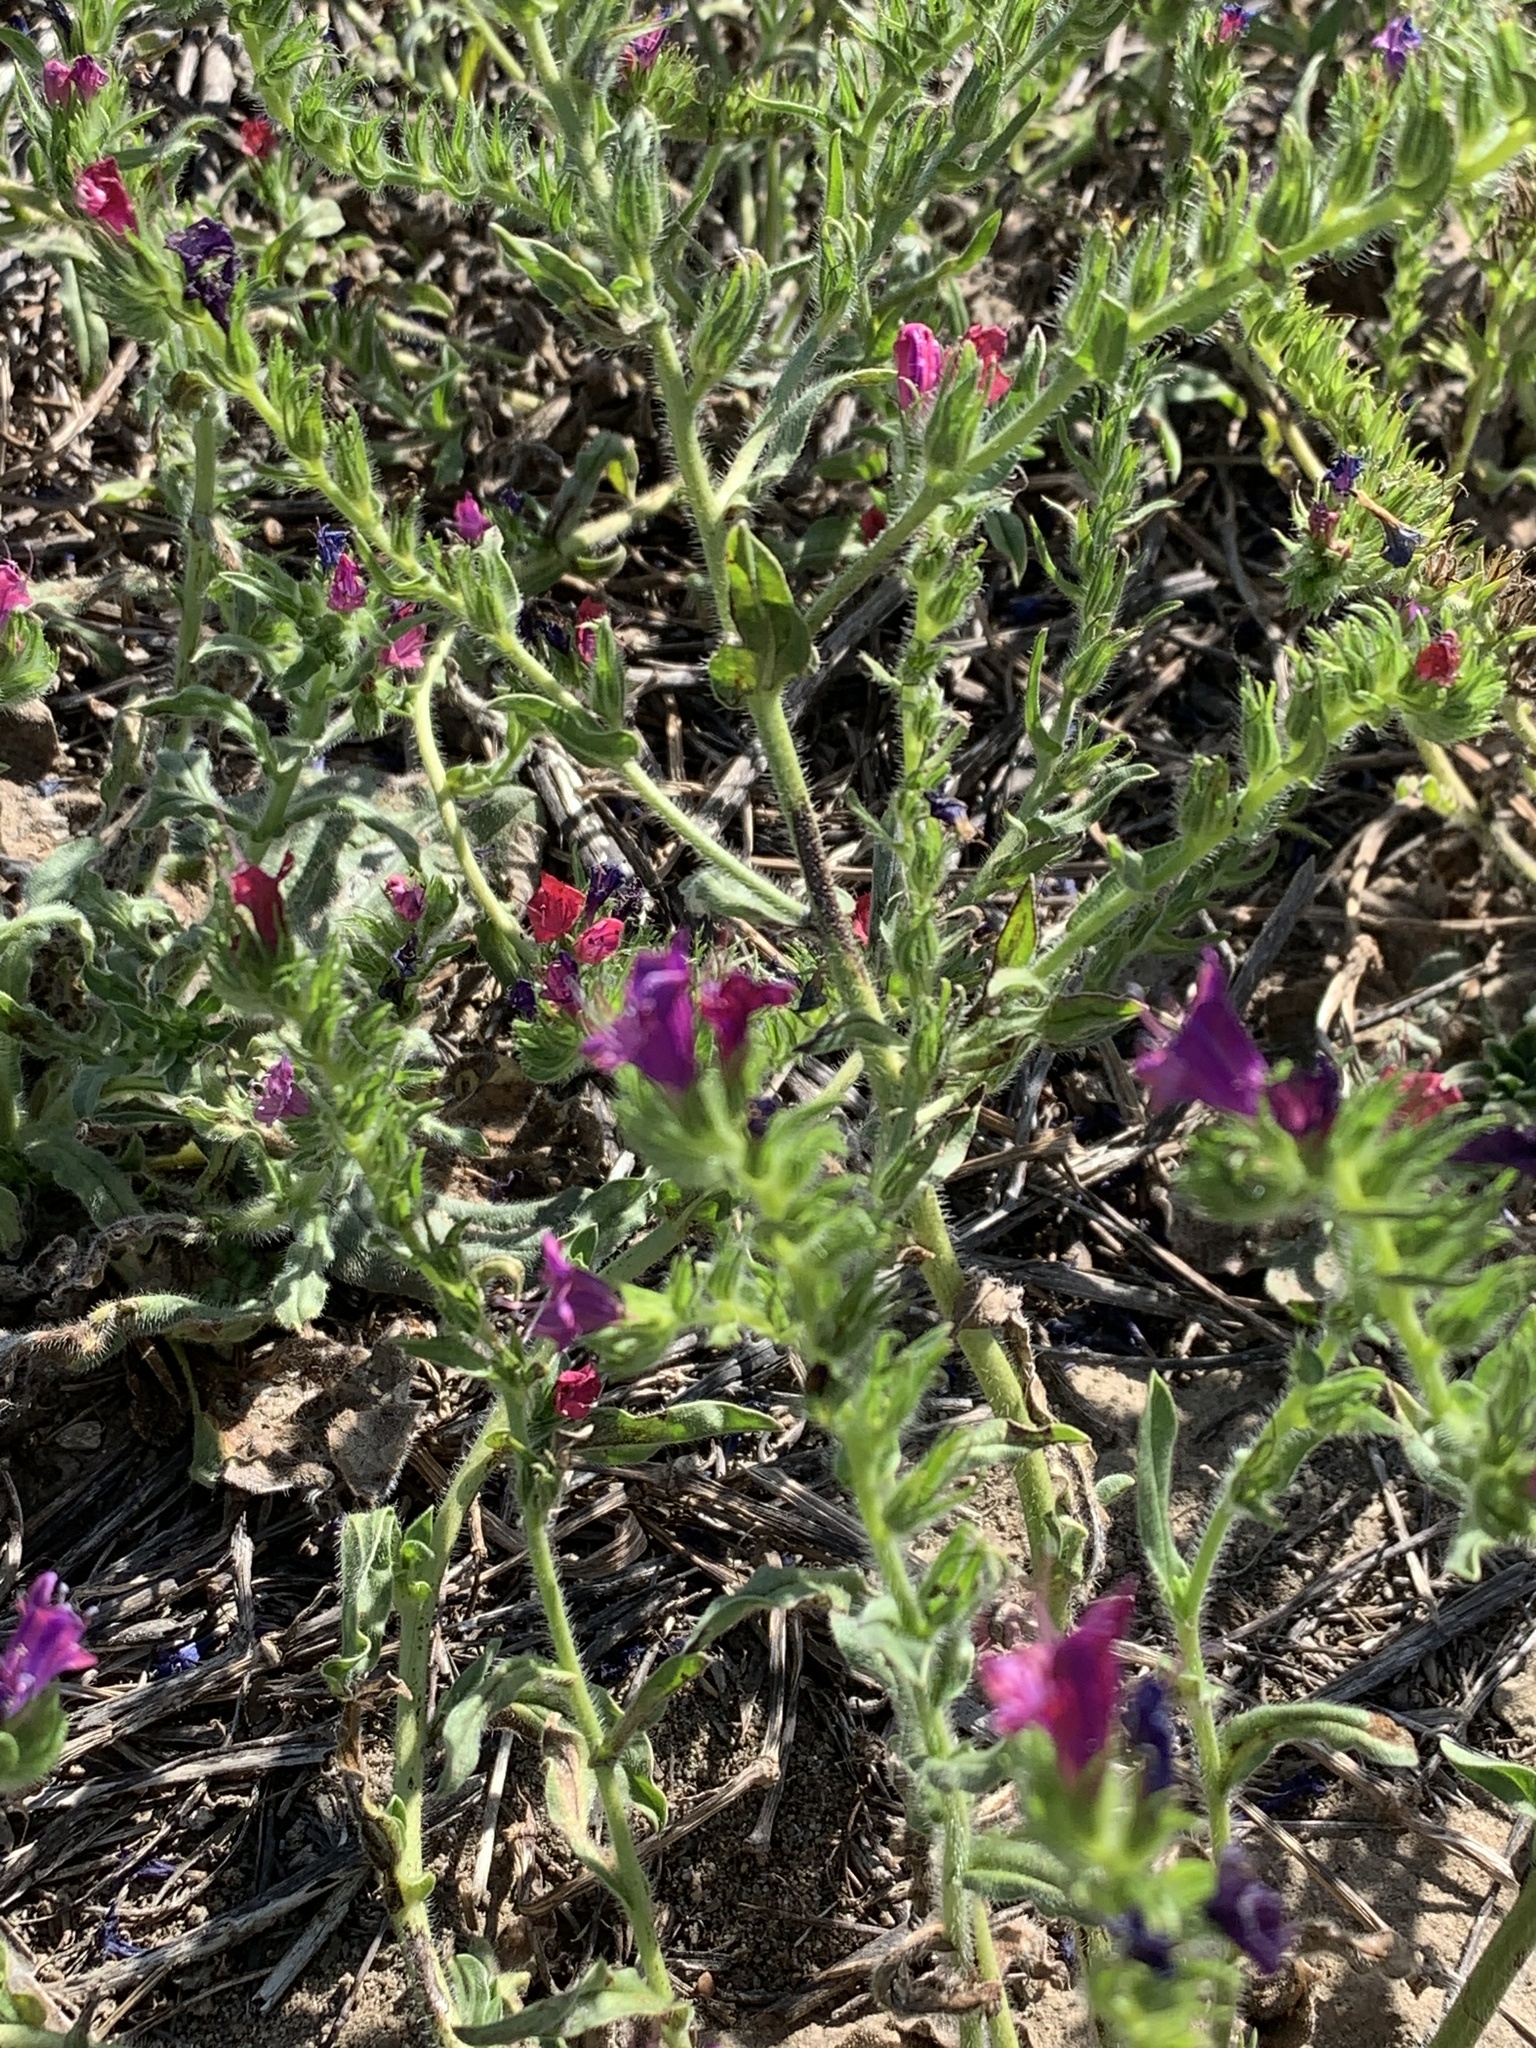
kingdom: Plantae
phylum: Tracheophyta
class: Magnoliopsida
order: Boraginales
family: Boraginaceae
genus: Echium
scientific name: Echium plantagineum
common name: Purple viper's-bugloss
